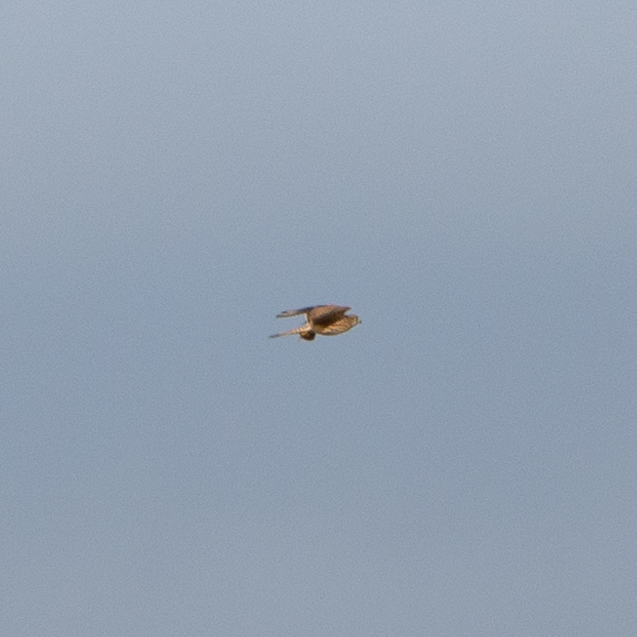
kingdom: Animalia
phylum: Chordata
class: Aves
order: Falconiformes
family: Falconidae
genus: Falco
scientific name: Falco tinnunculus
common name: Common kestrel
